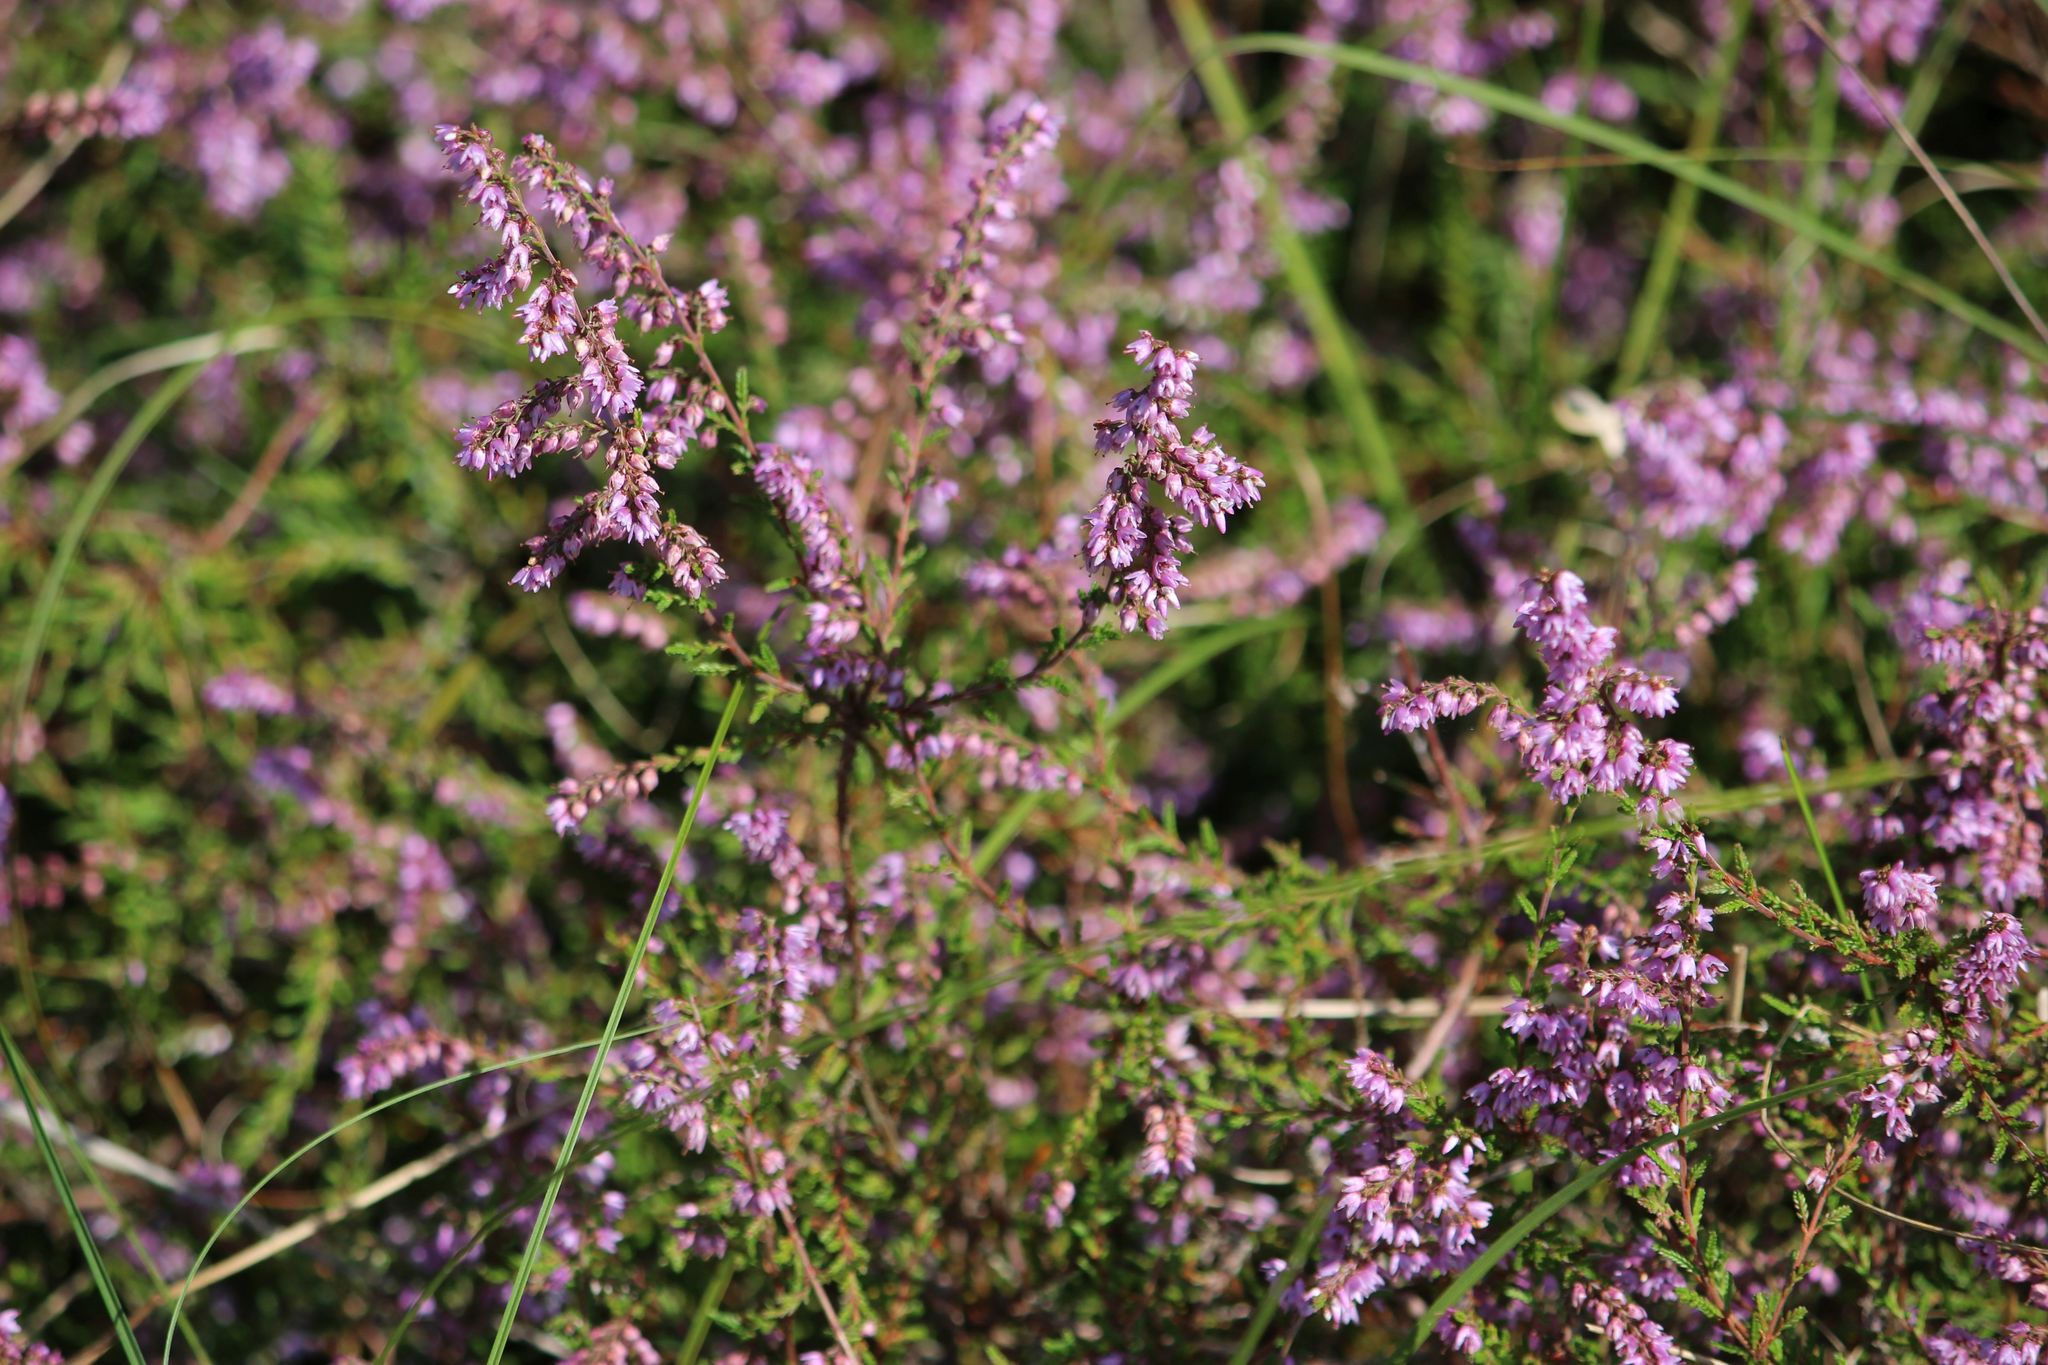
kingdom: Plantae
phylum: Tracheophyta
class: Magnoliopsida
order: Ericales
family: Ericaceae
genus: Calluna
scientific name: Calluna vulgaris
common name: Heather
